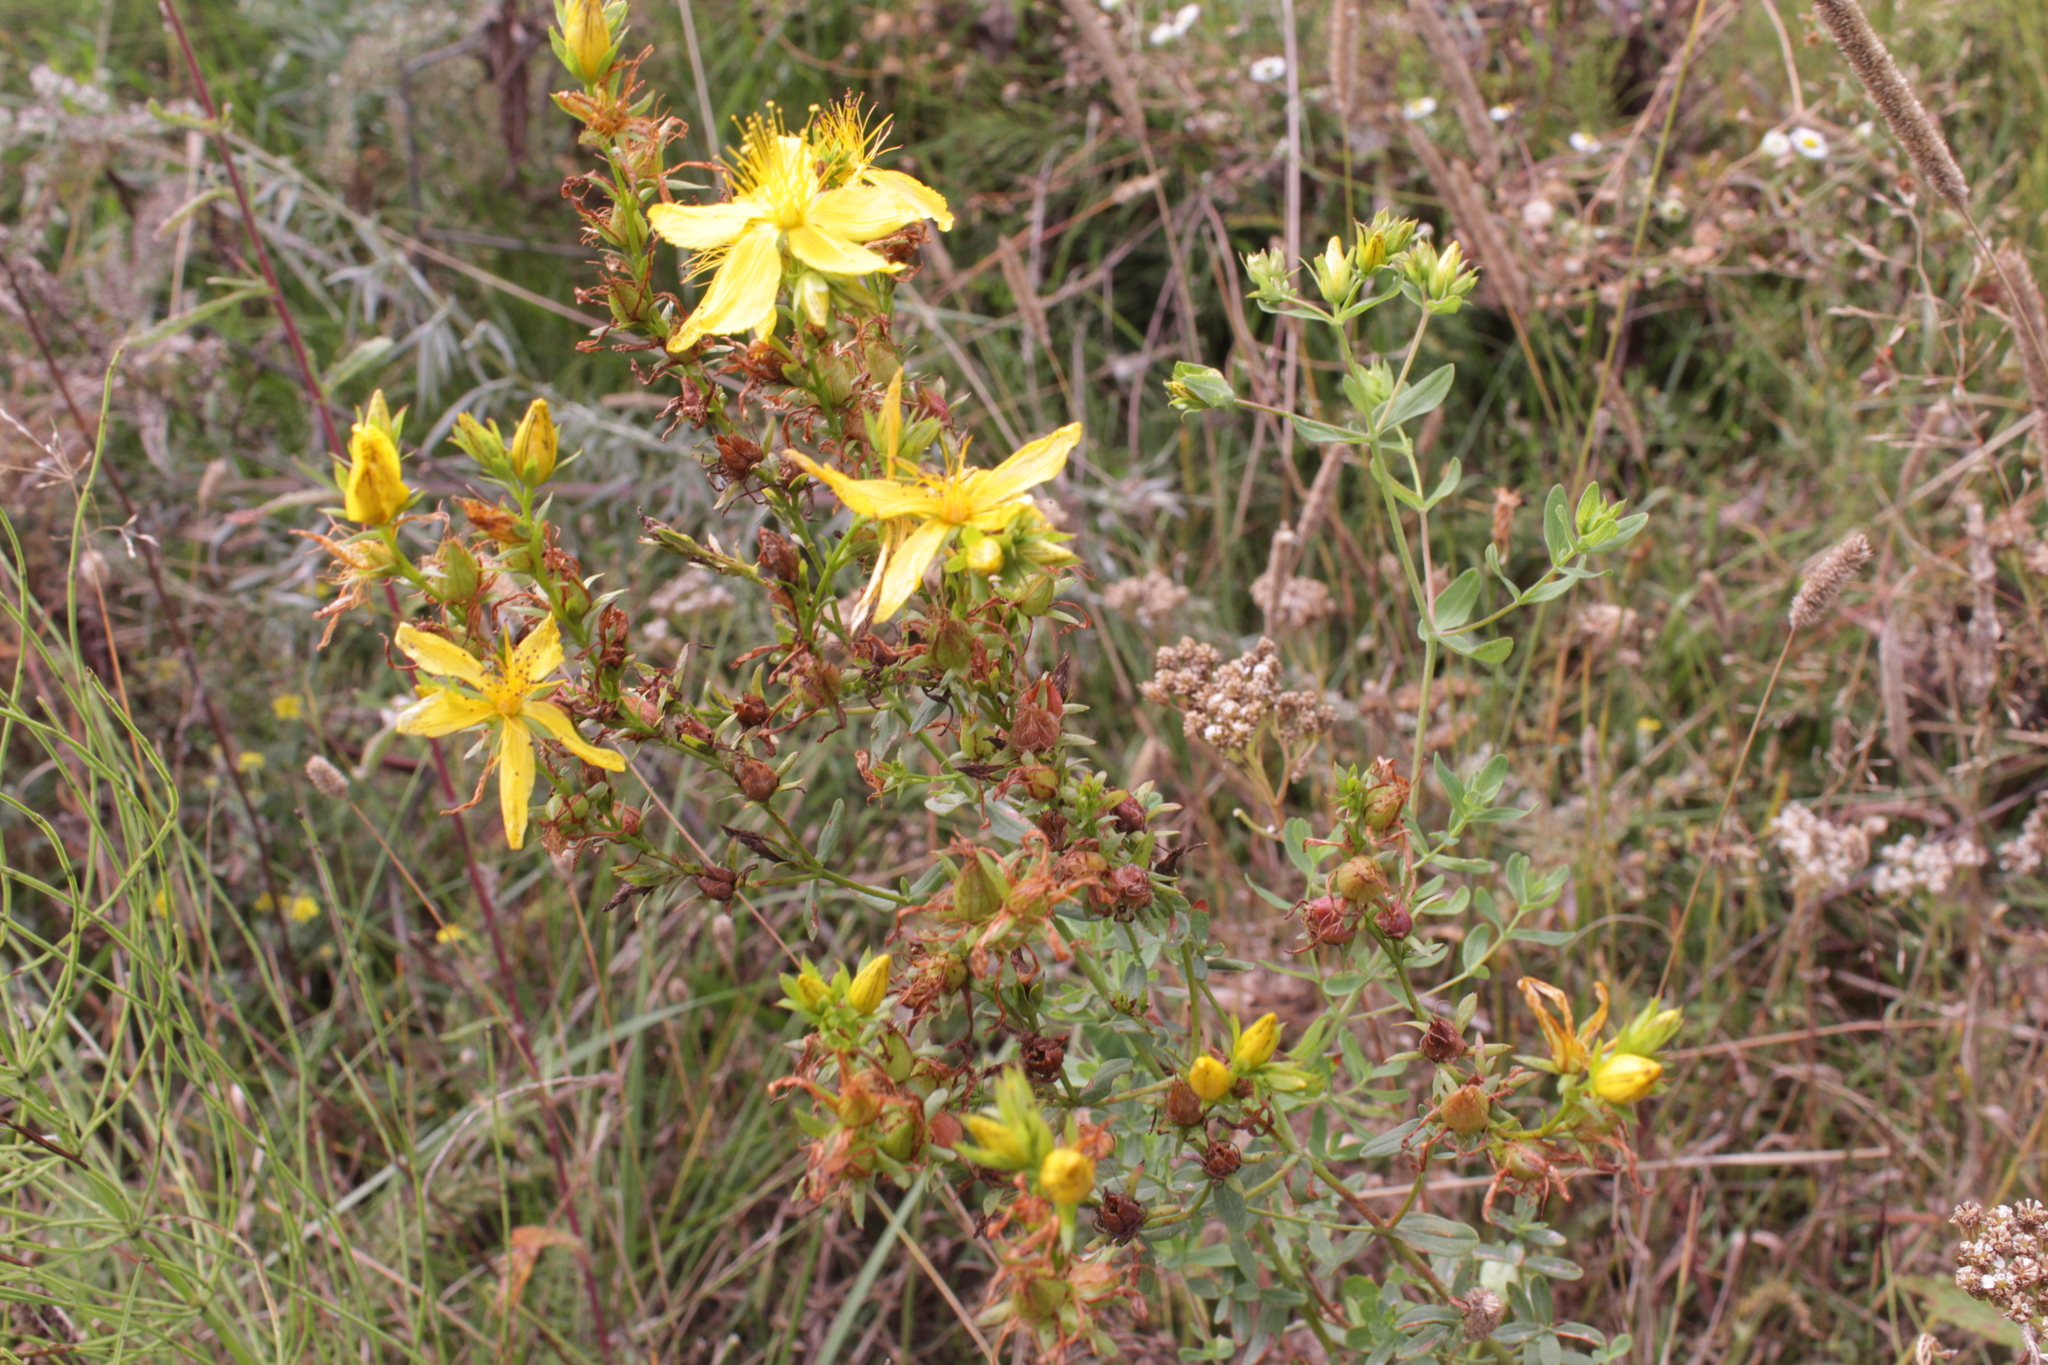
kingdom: Plantae
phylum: Tracheophyta
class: Magnoliopsida
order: Malpighiales
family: Hypericaceae
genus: Hypericum
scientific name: Hypericum perforatum
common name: Common st. johnswort
